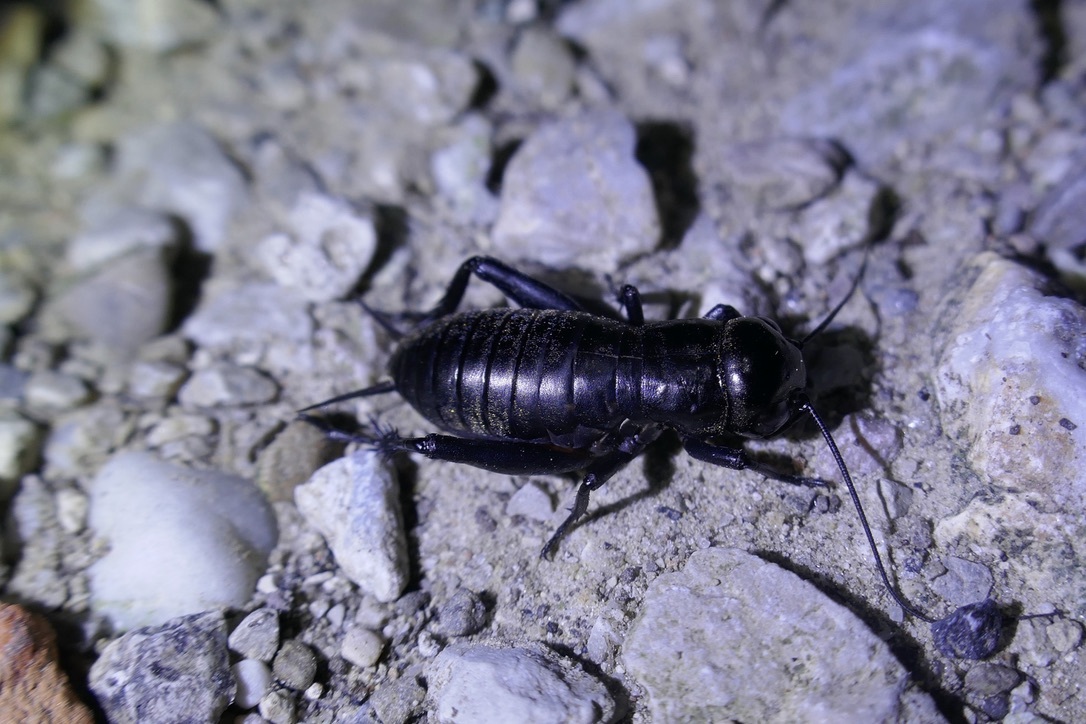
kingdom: Animalia
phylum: Arthropoda
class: Insecta
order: Orthoptera
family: Gryllidae
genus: Gryllus
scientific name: Gryllus campestris
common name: Field cricket
